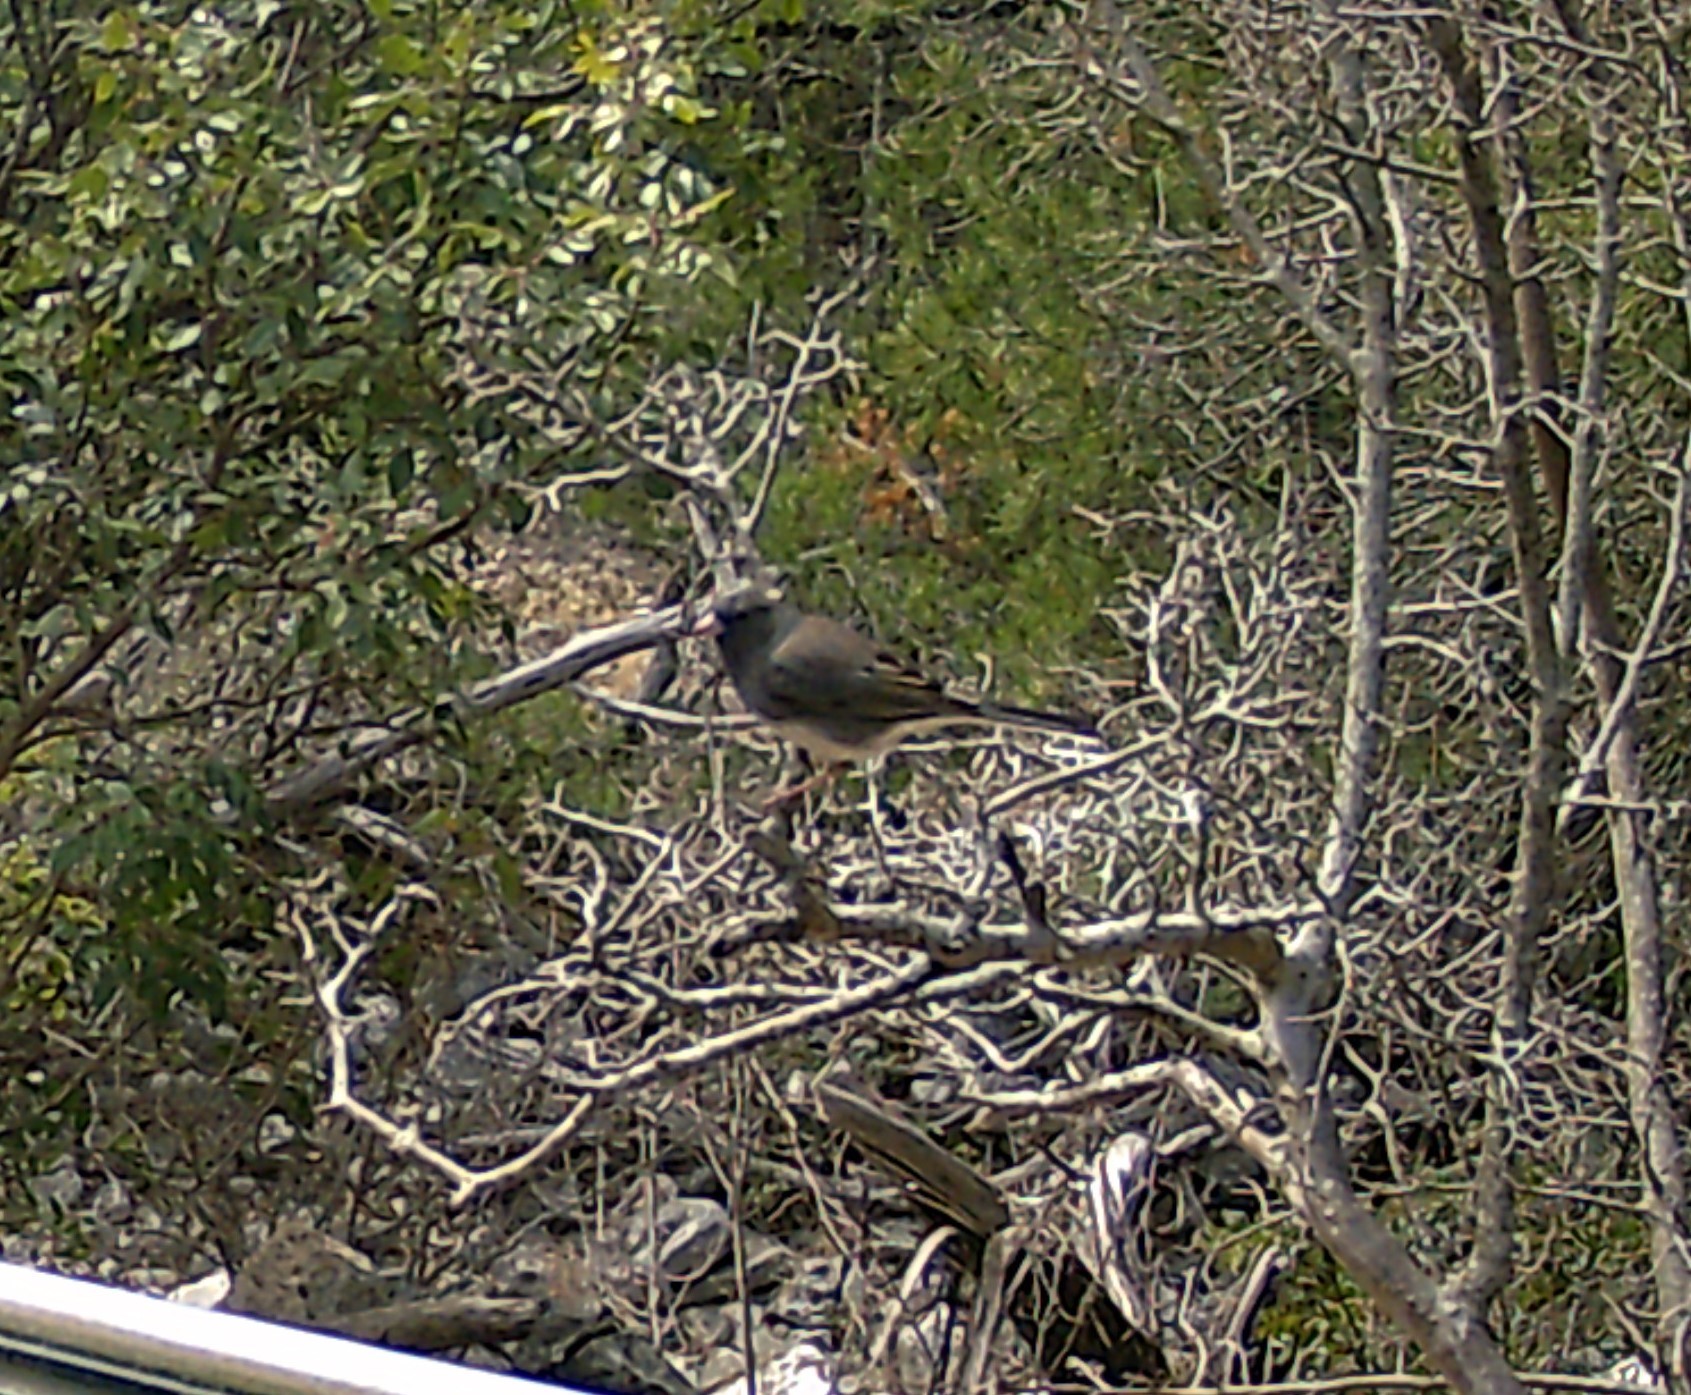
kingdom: Animalia
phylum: Chordata
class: Aves
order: Passeriformes
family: Passerellidae
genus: Junco
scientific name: Junco hyemalis
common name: Dark-eyed junco
